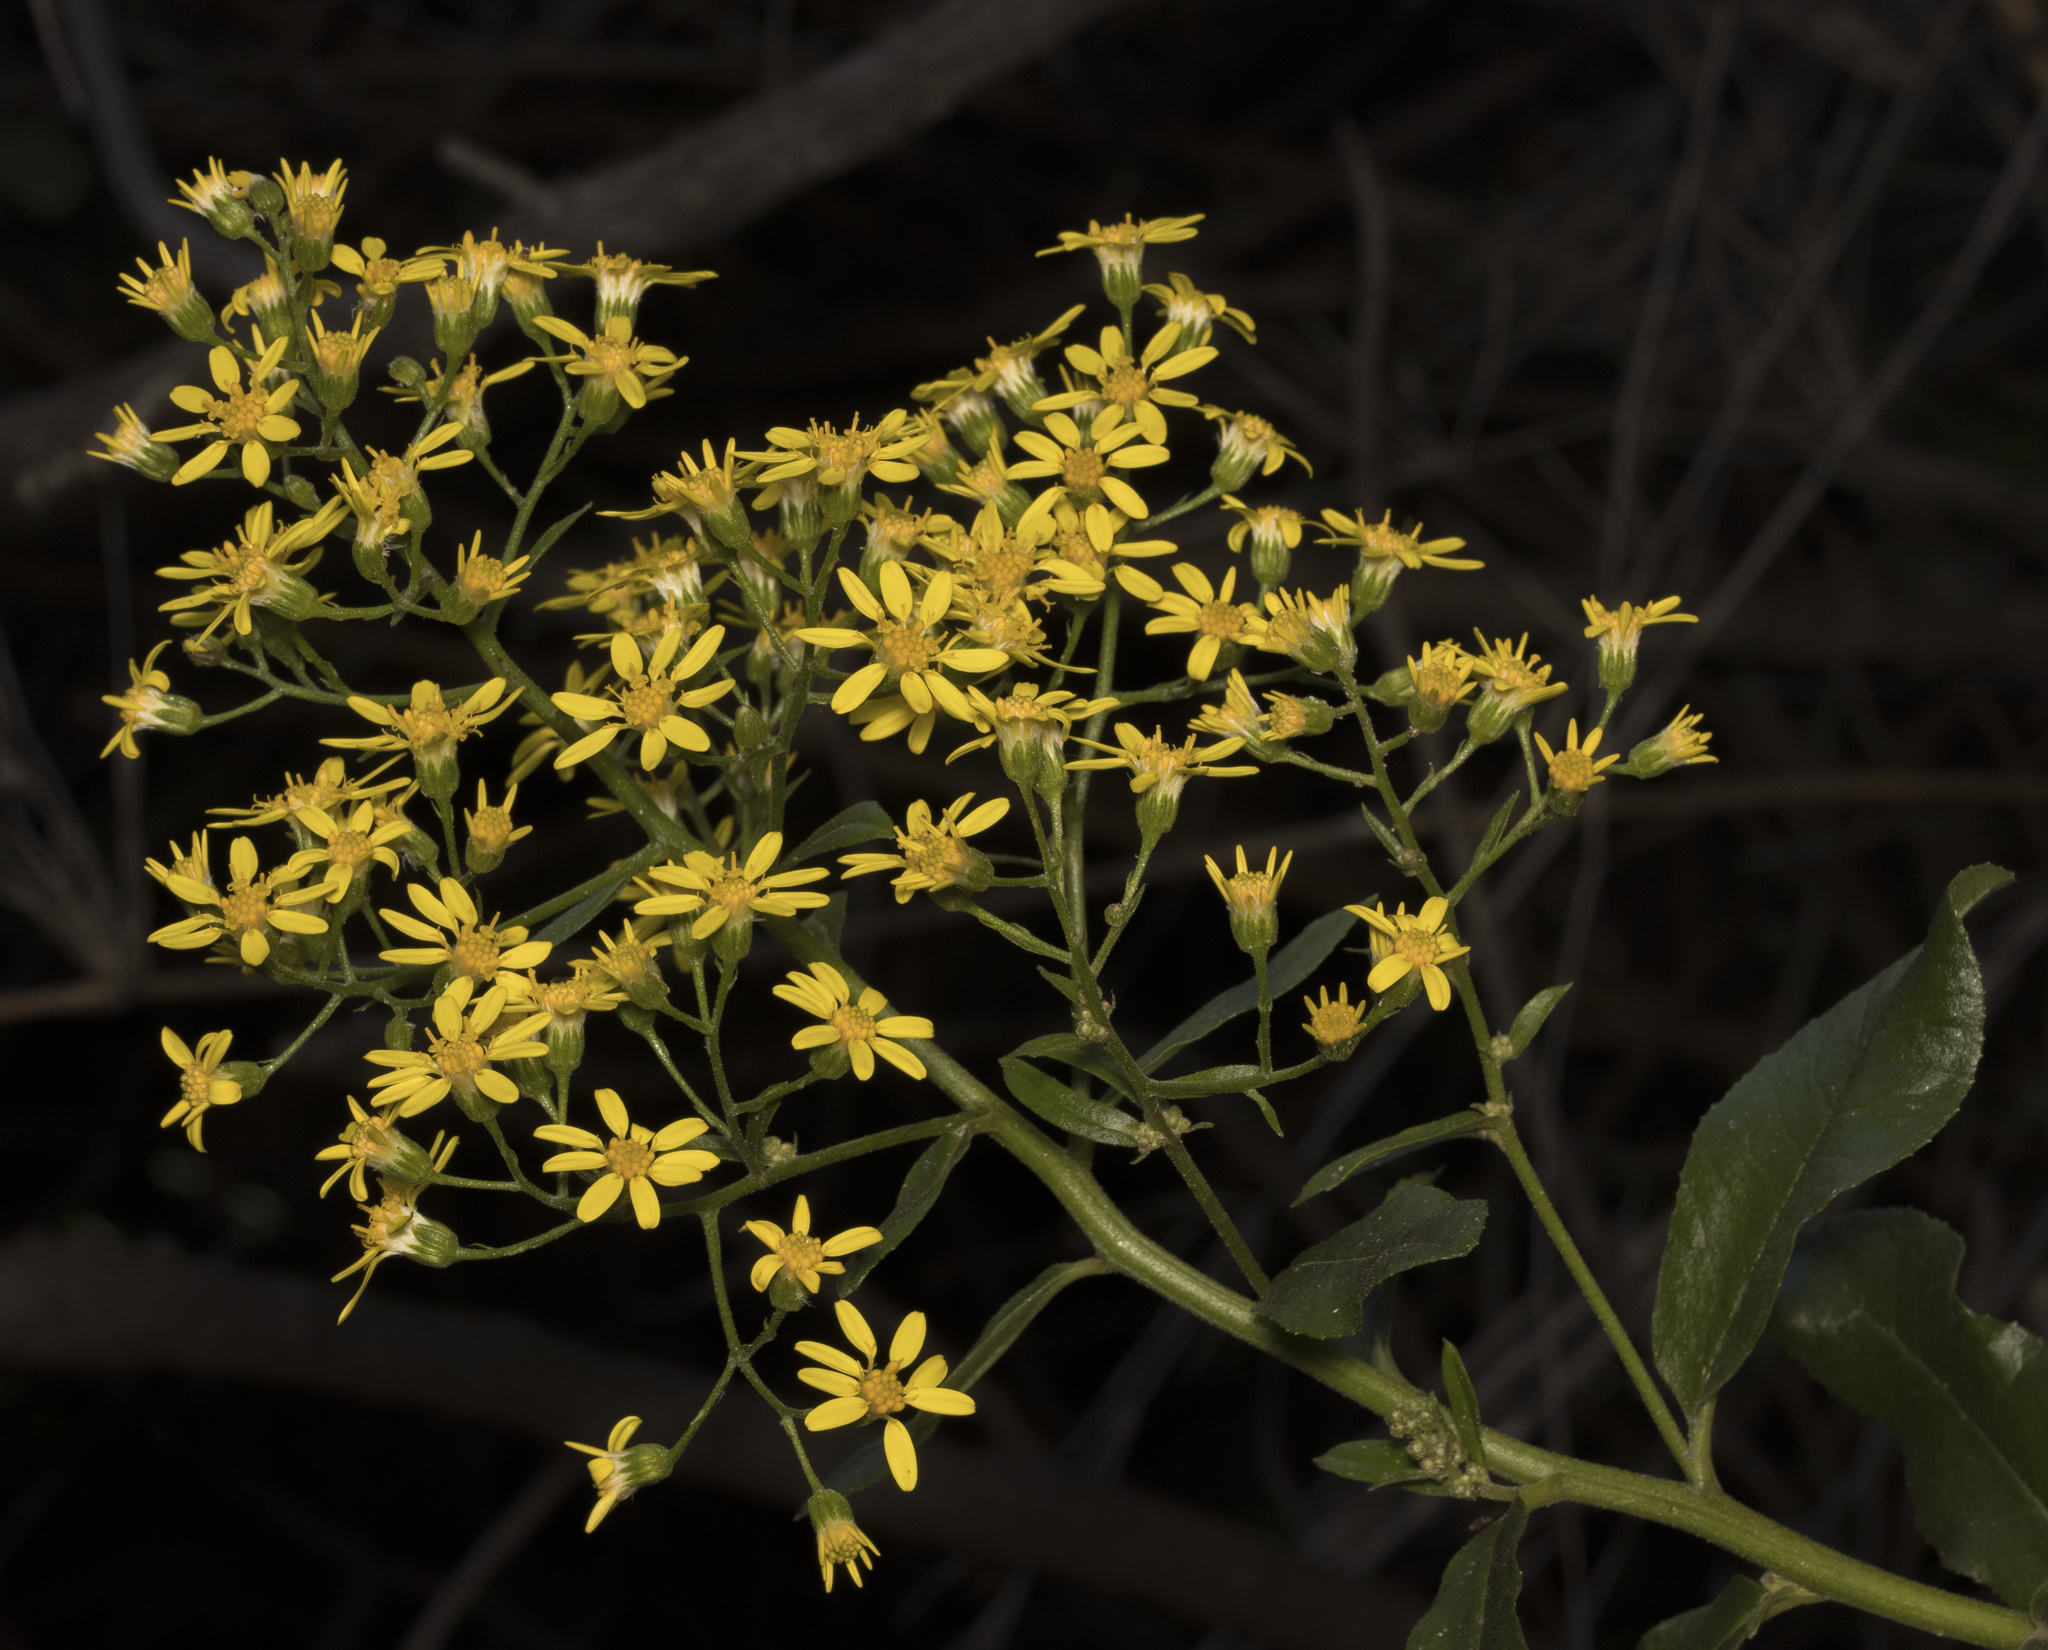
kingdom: Plantae
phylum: Tracheophyta
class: Magnoliopsida
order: Asterales
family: Asteraceae
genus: Acrisione
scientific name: Acrisione denticulata
